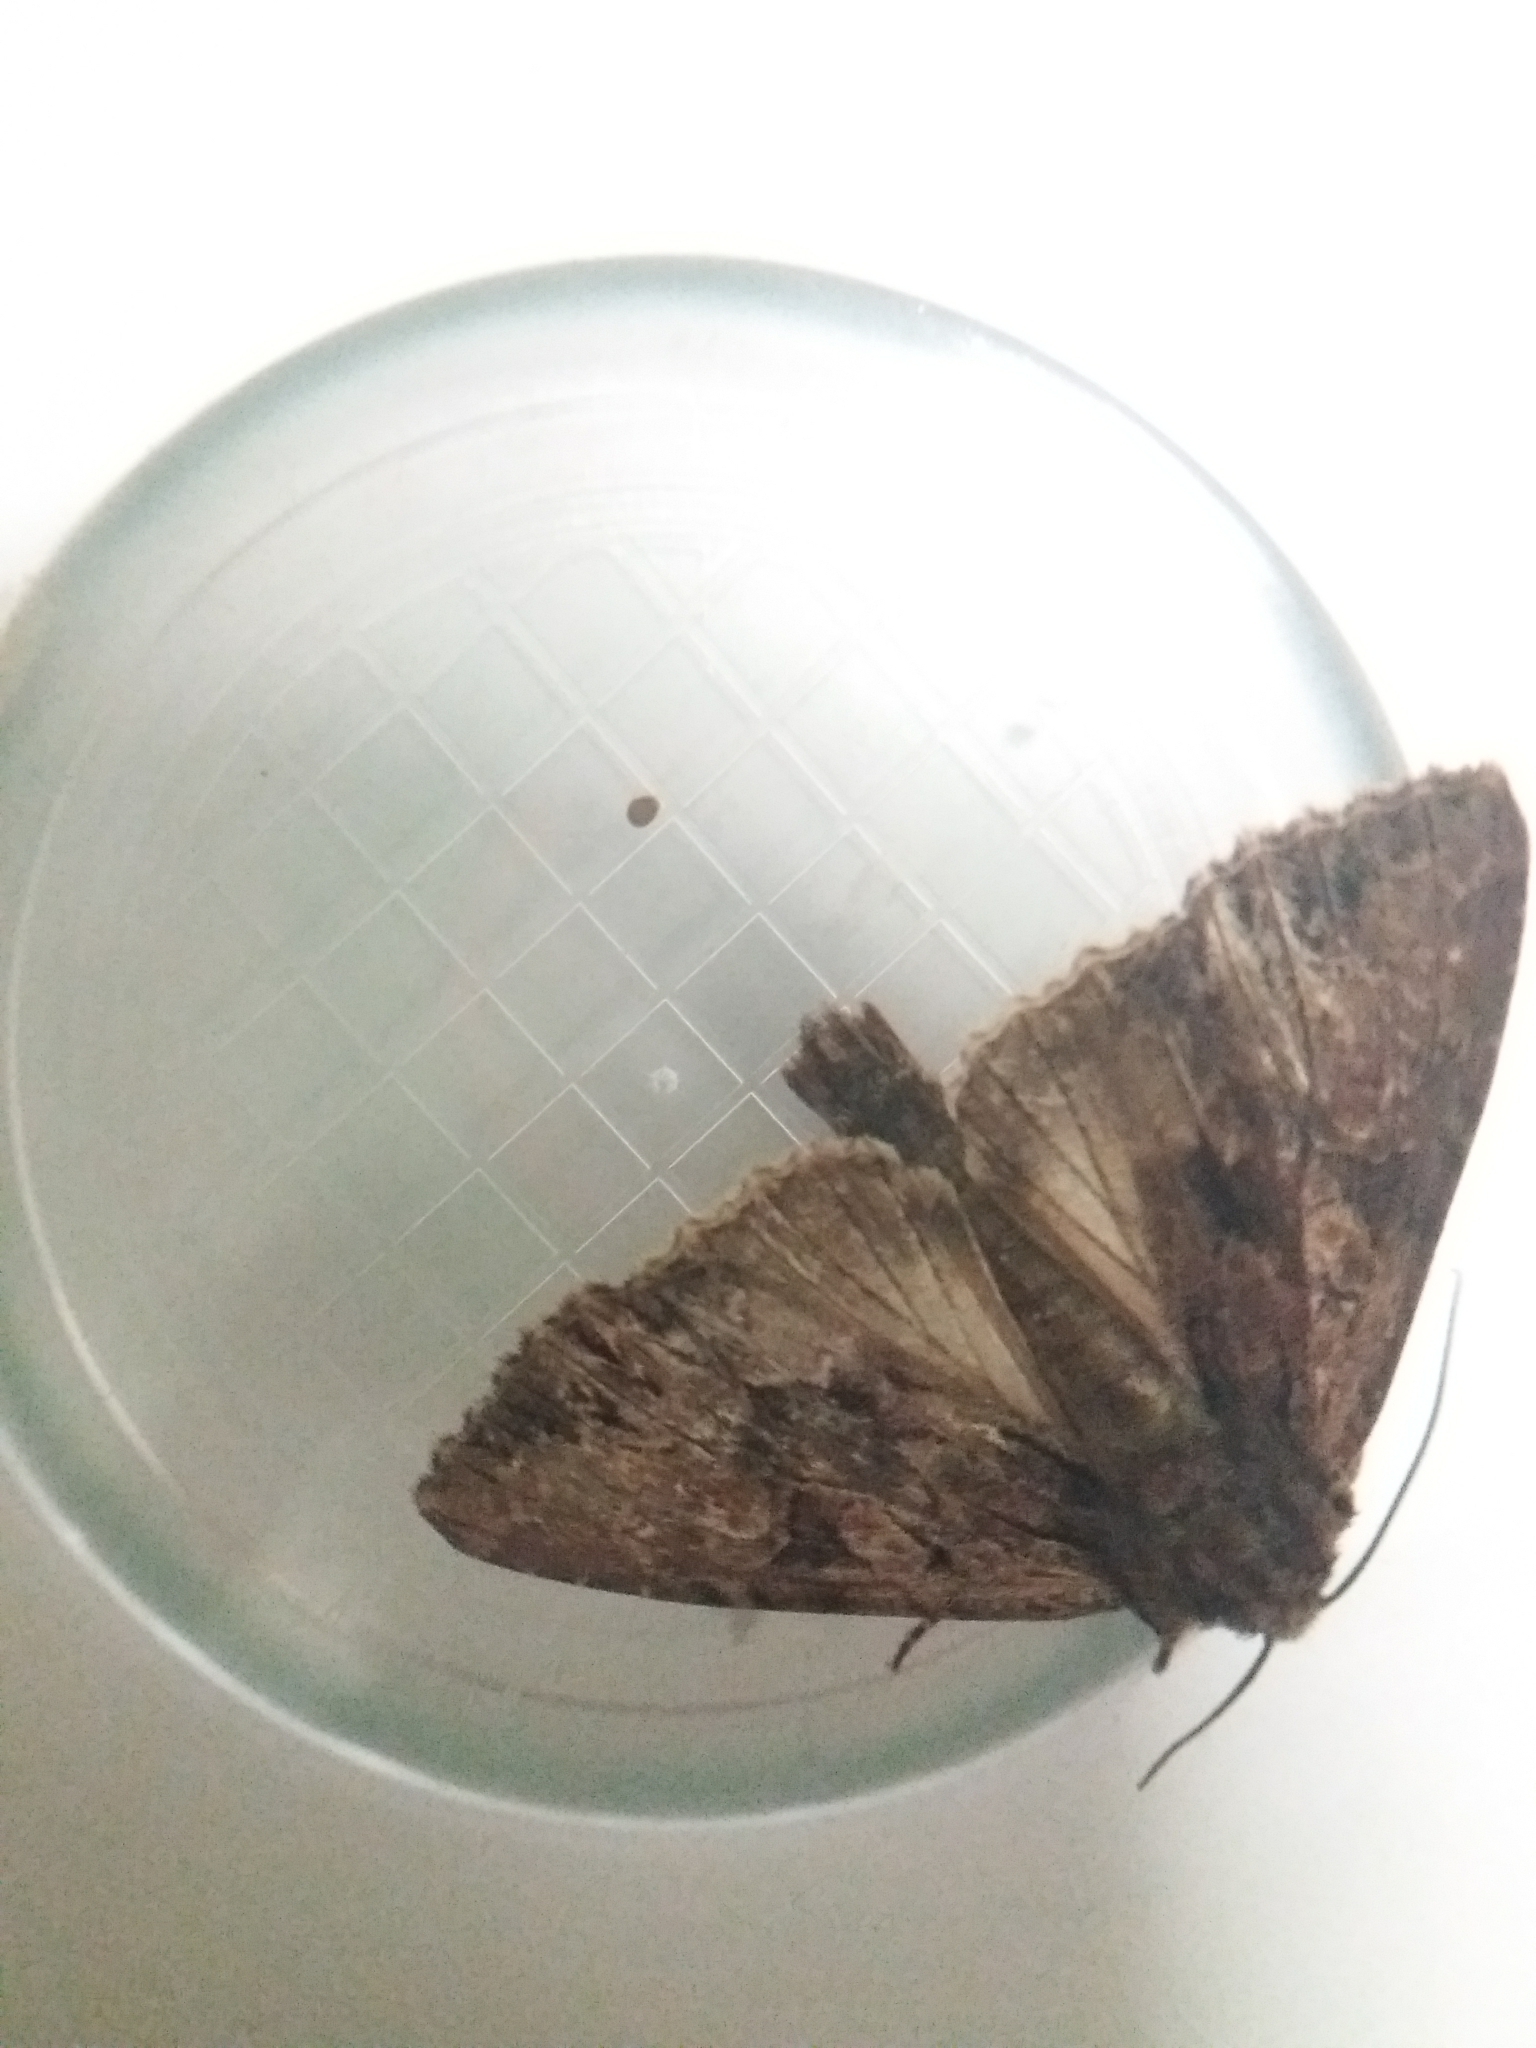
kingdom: Animalia
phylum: Arthropoda
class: Insecta
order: Lepidoptera
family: Noctuidae
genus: Apamea
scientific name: Apamea monoglypha
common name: Dark arches
